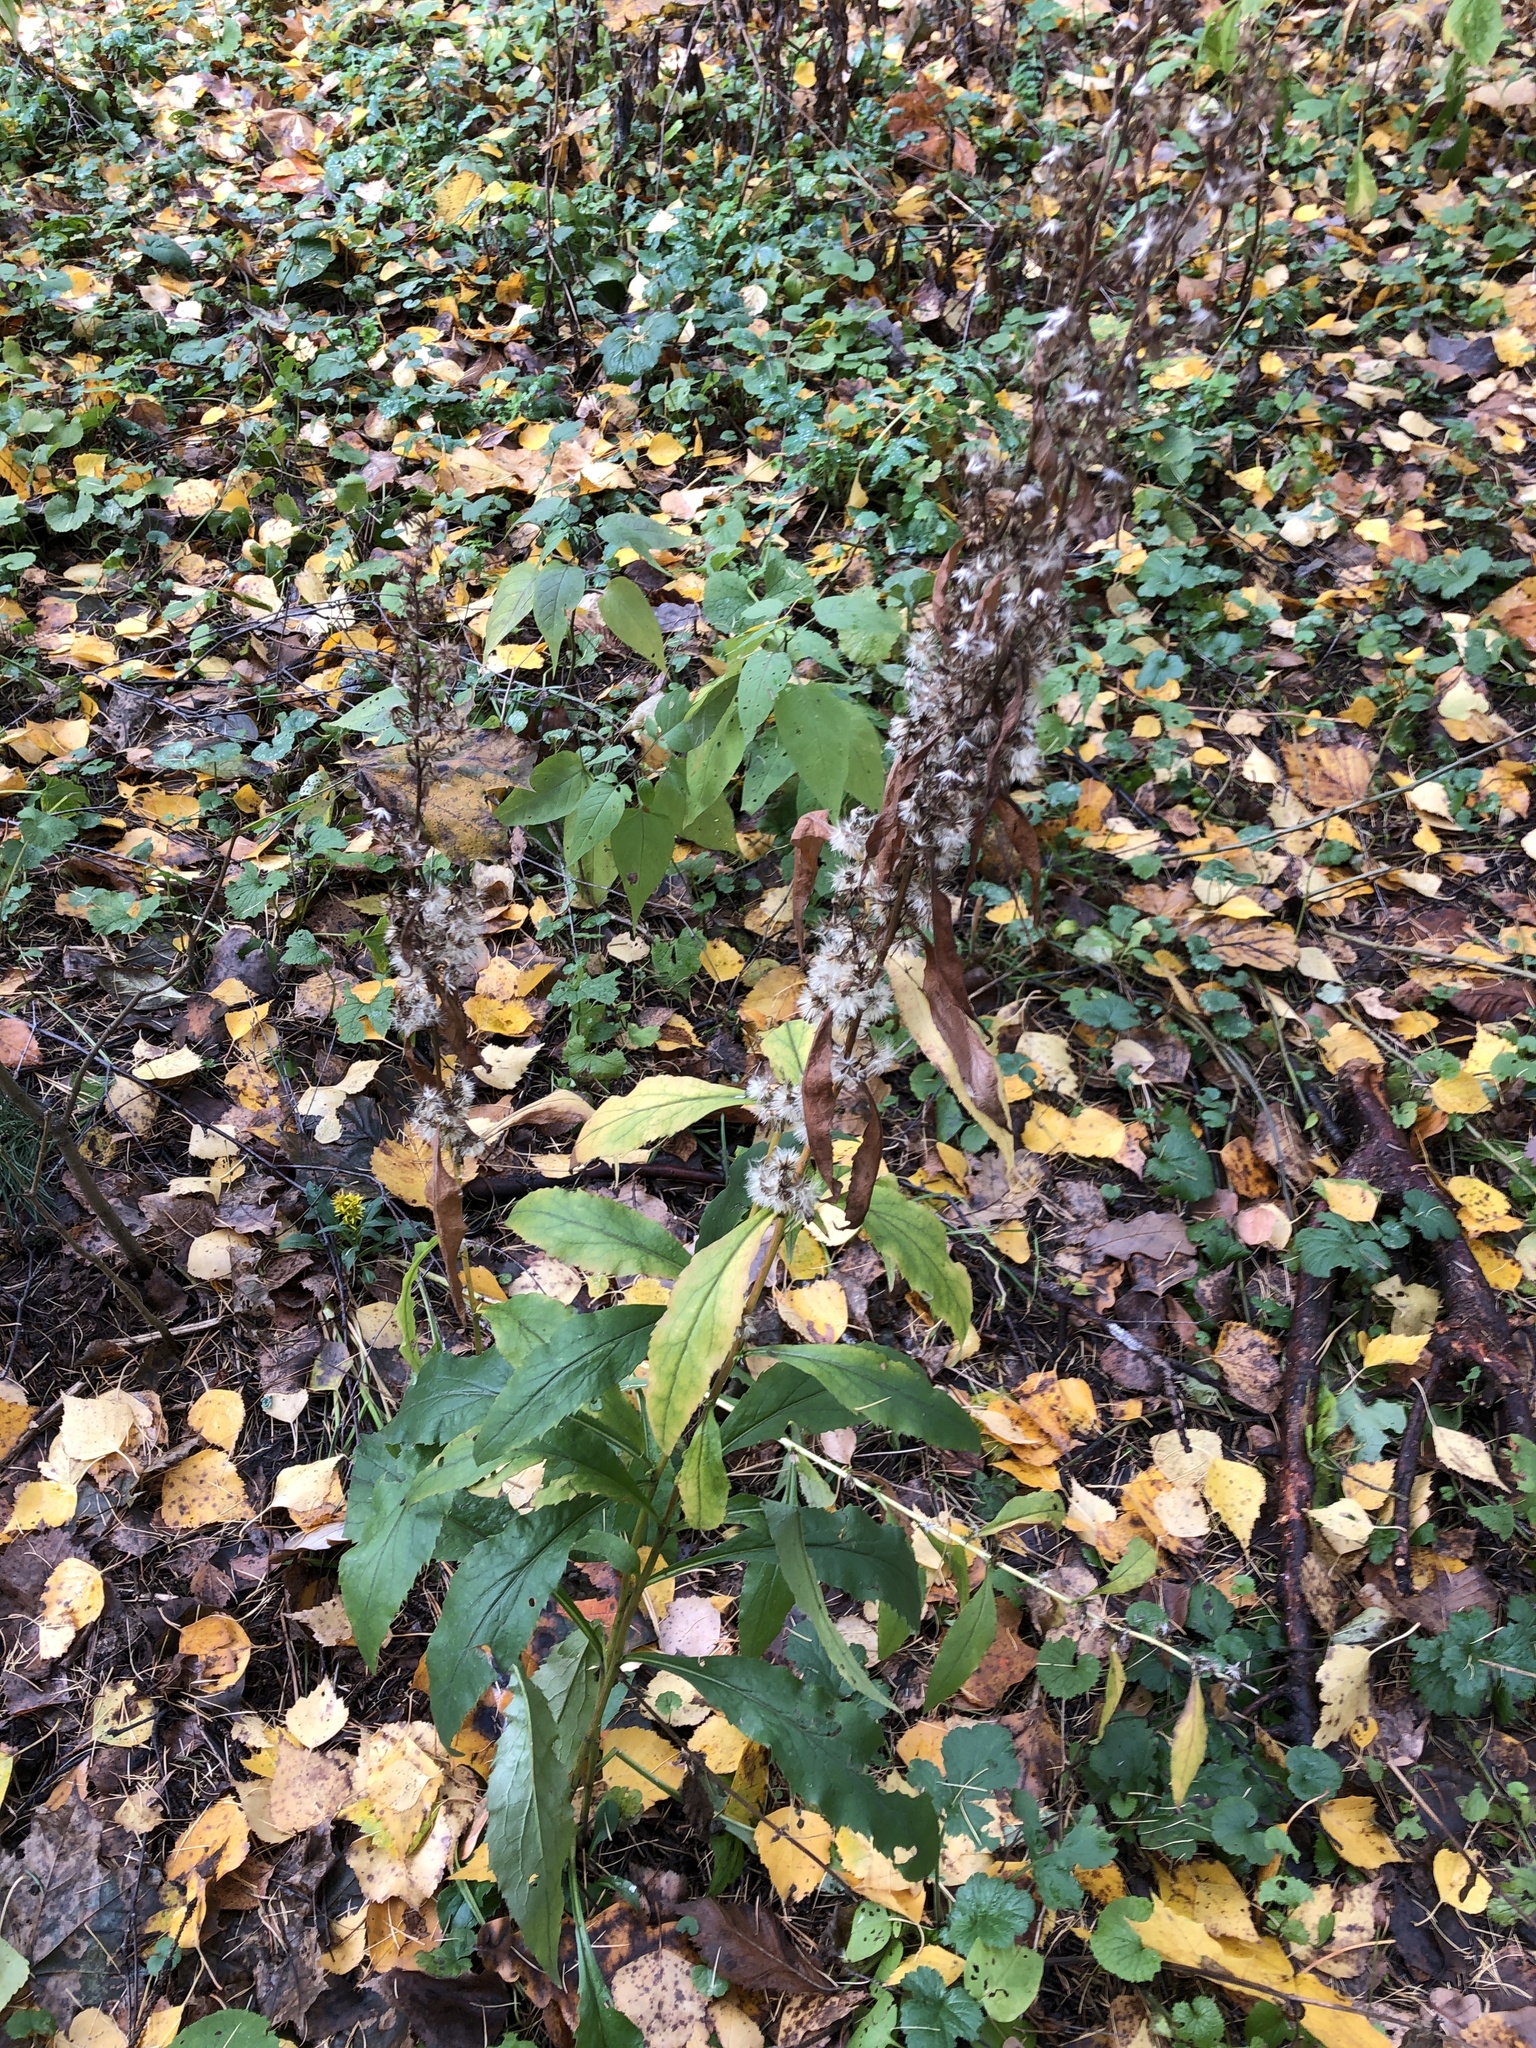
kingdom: Plantae
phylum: Tracheophyta
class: Magnoliopsida
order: Asterales
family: Asteraceae
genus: Solidago
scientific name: Solidago virgaurea
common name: Goldenrod
